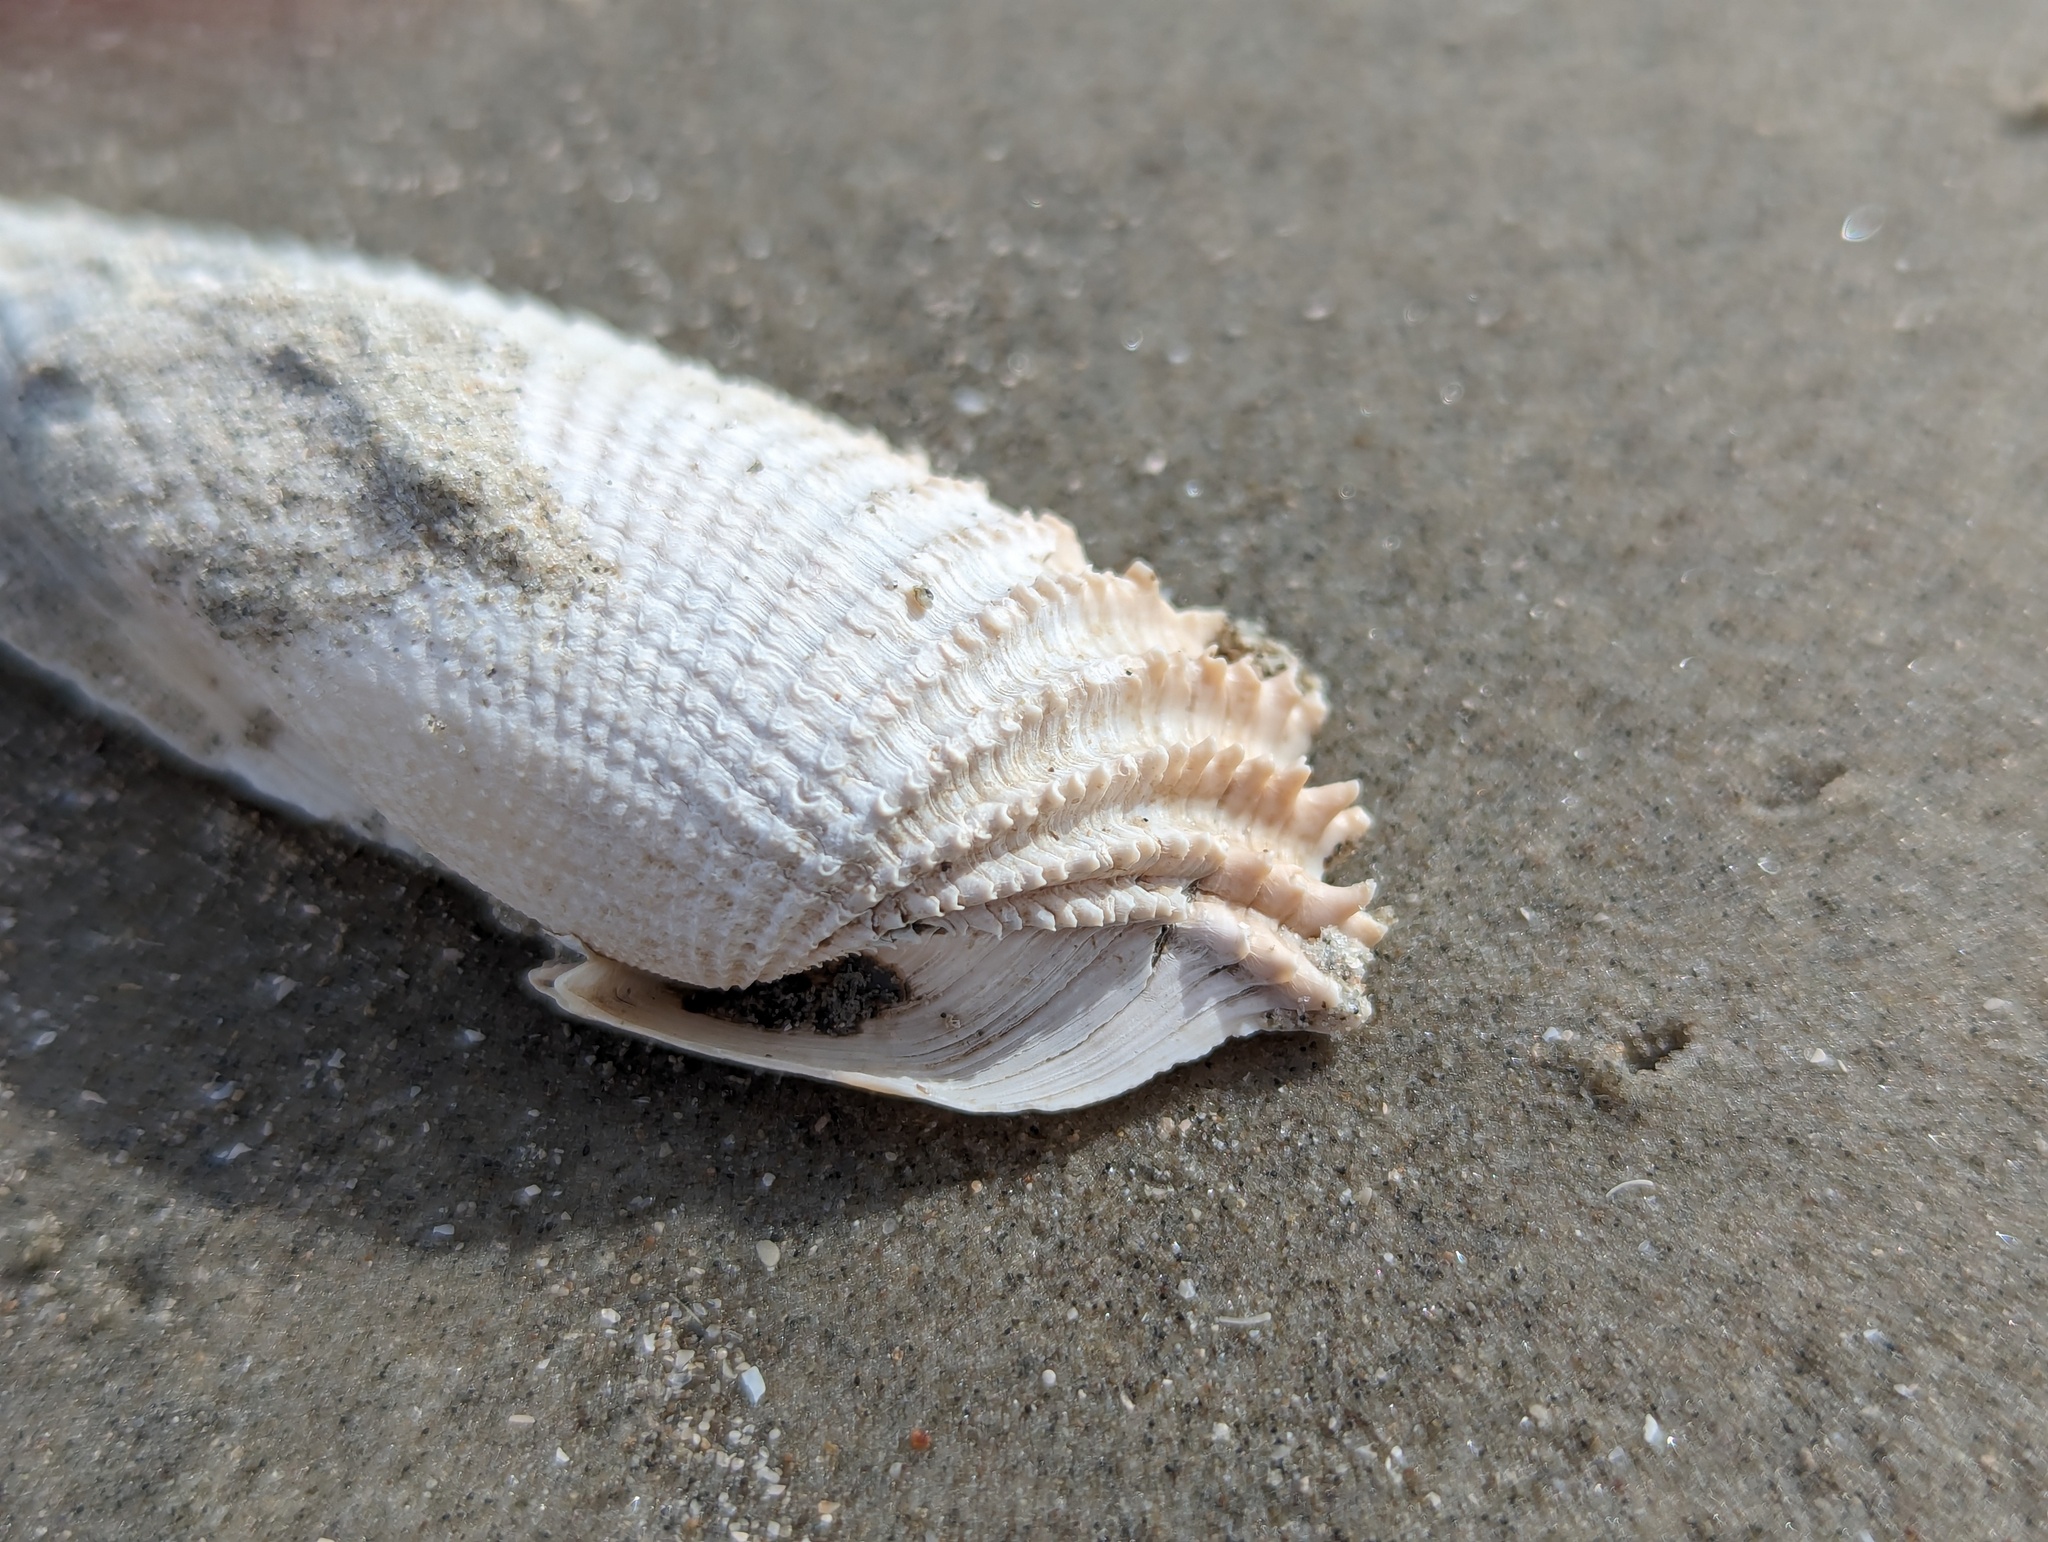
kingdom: Animalia
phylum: Mollusca
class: Bivalvia
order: Myida
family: Pholadidae
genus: Cyrtopleura
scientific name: Cyrtopleura costata
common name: Angel wing
